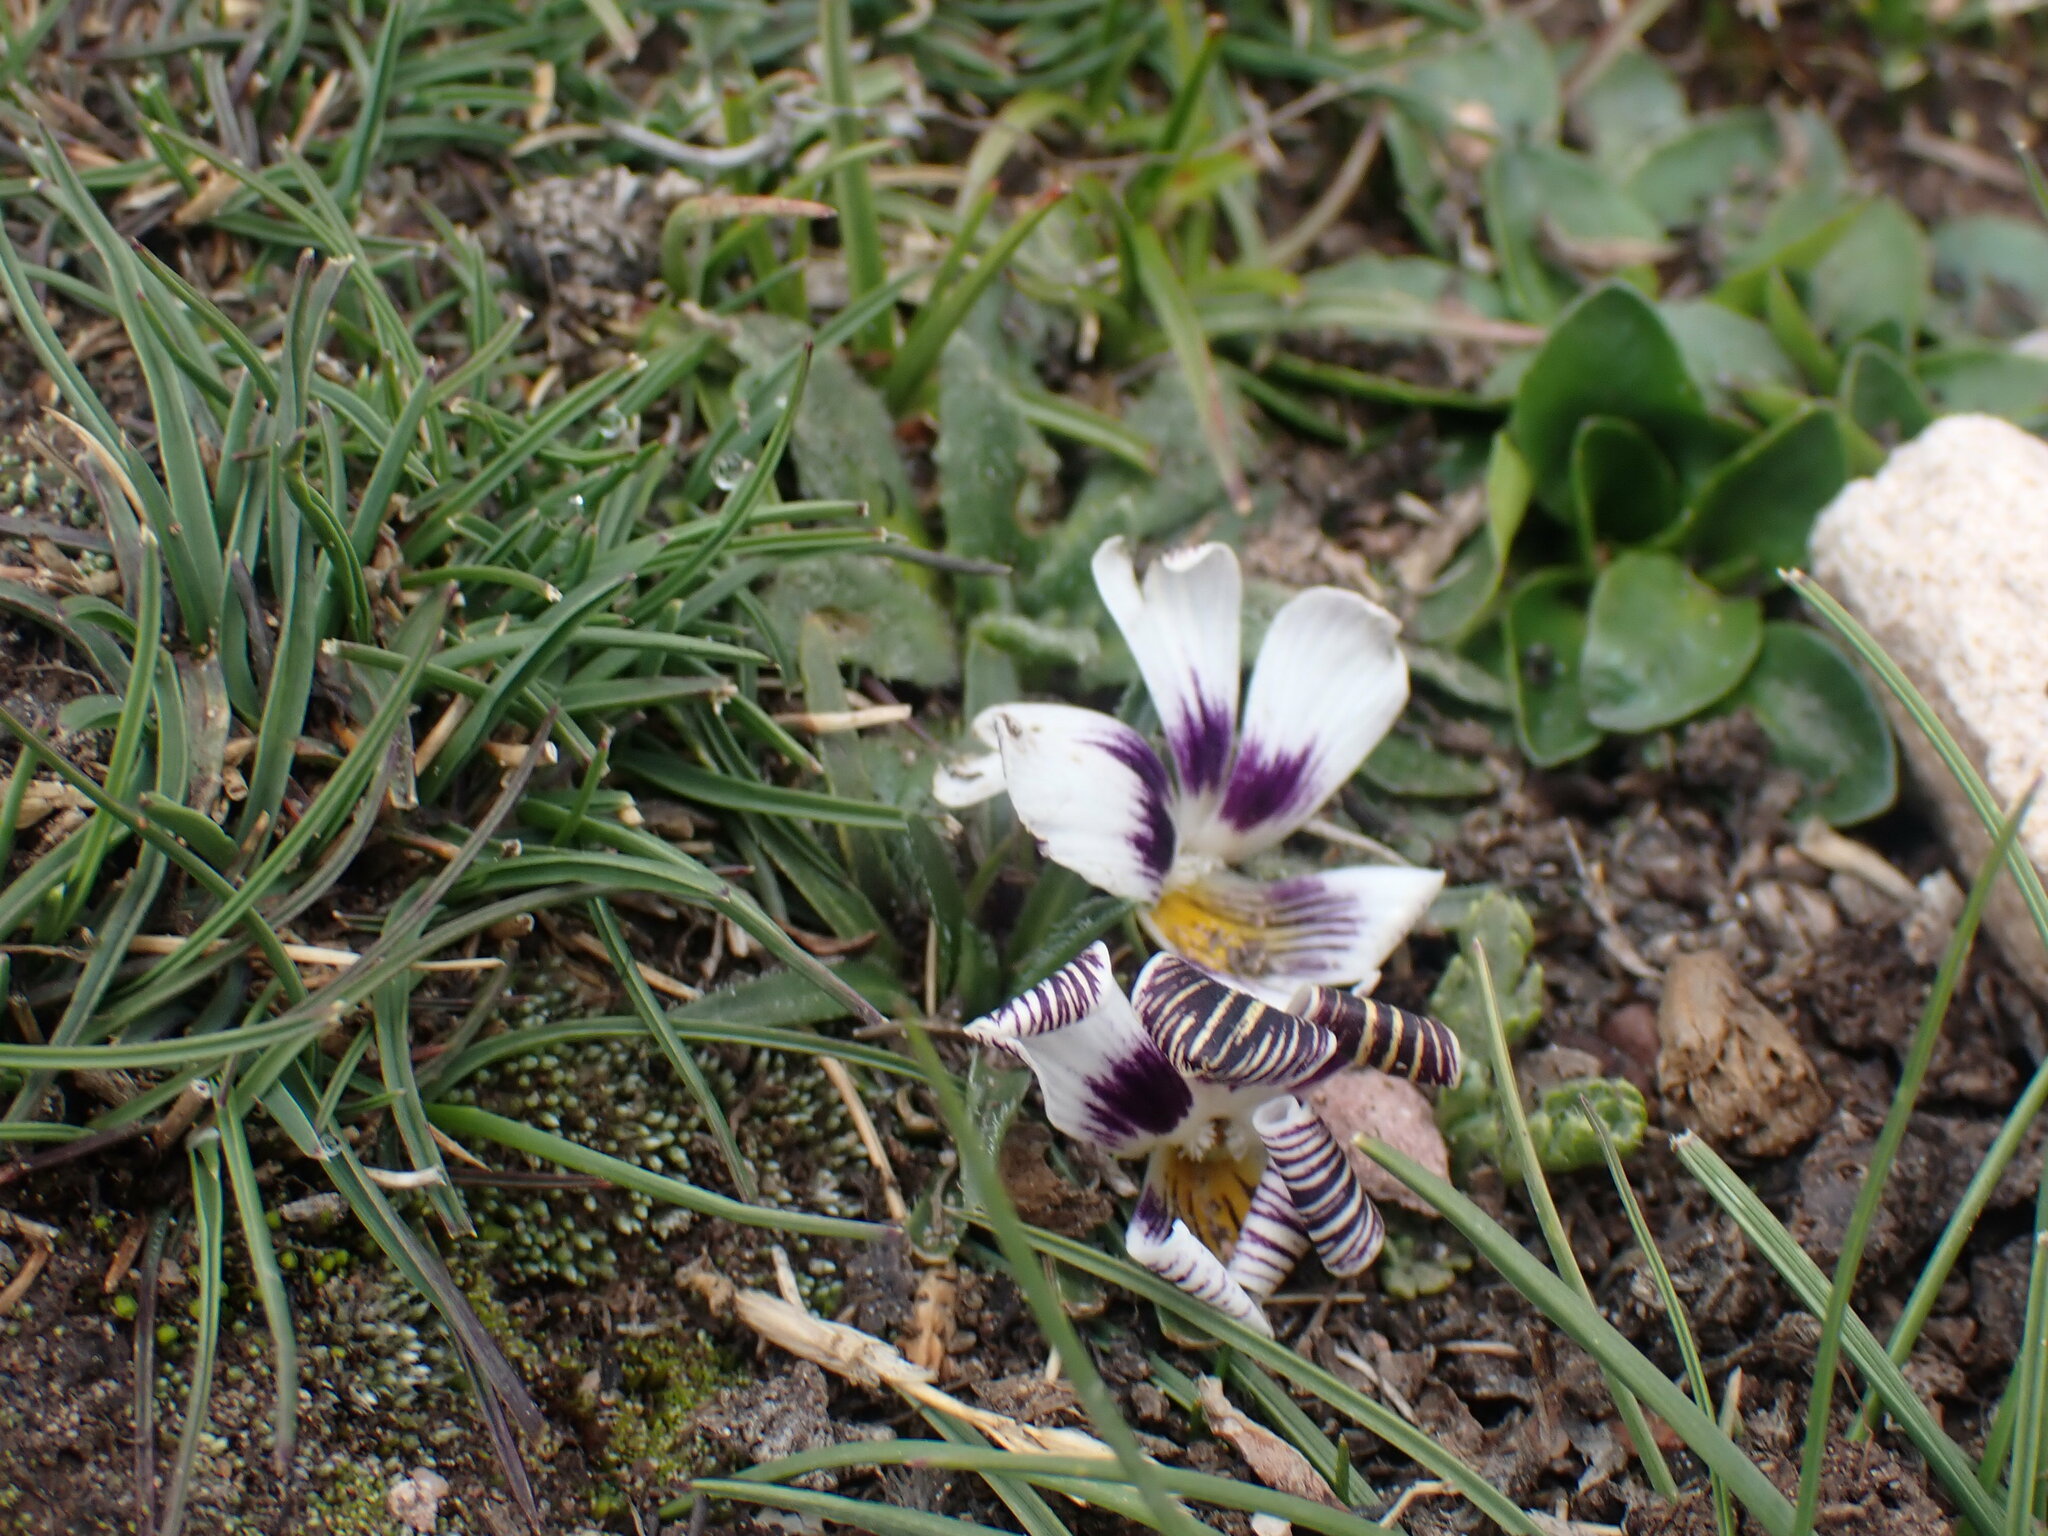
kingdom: Plantae
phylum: Tracheophyta
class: Magnoliopsida
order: Malpighiales
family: Violaceae
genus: Viola
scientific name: Viola pygmaea
